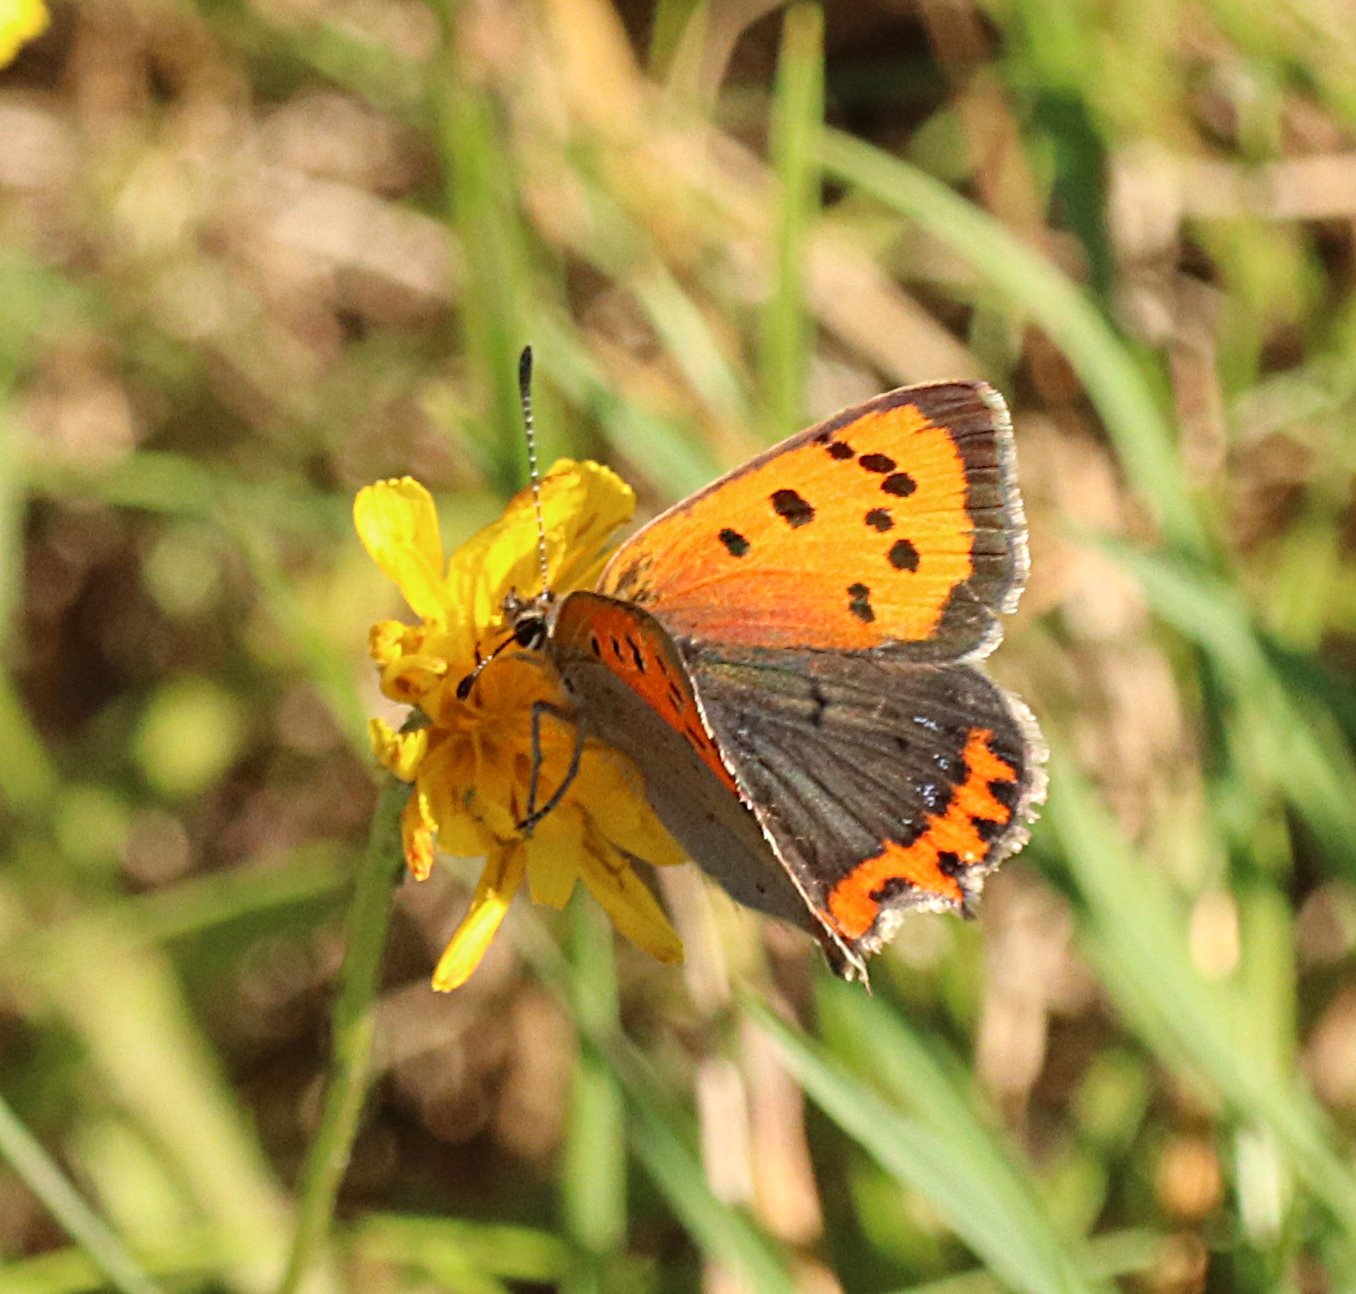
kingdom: Animalia
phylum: Arthropoda
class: Insecta
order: Lepidoptera
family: Lycaenidae
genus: Lycaena
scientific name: Lycaena phlaeas
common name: Small copper
